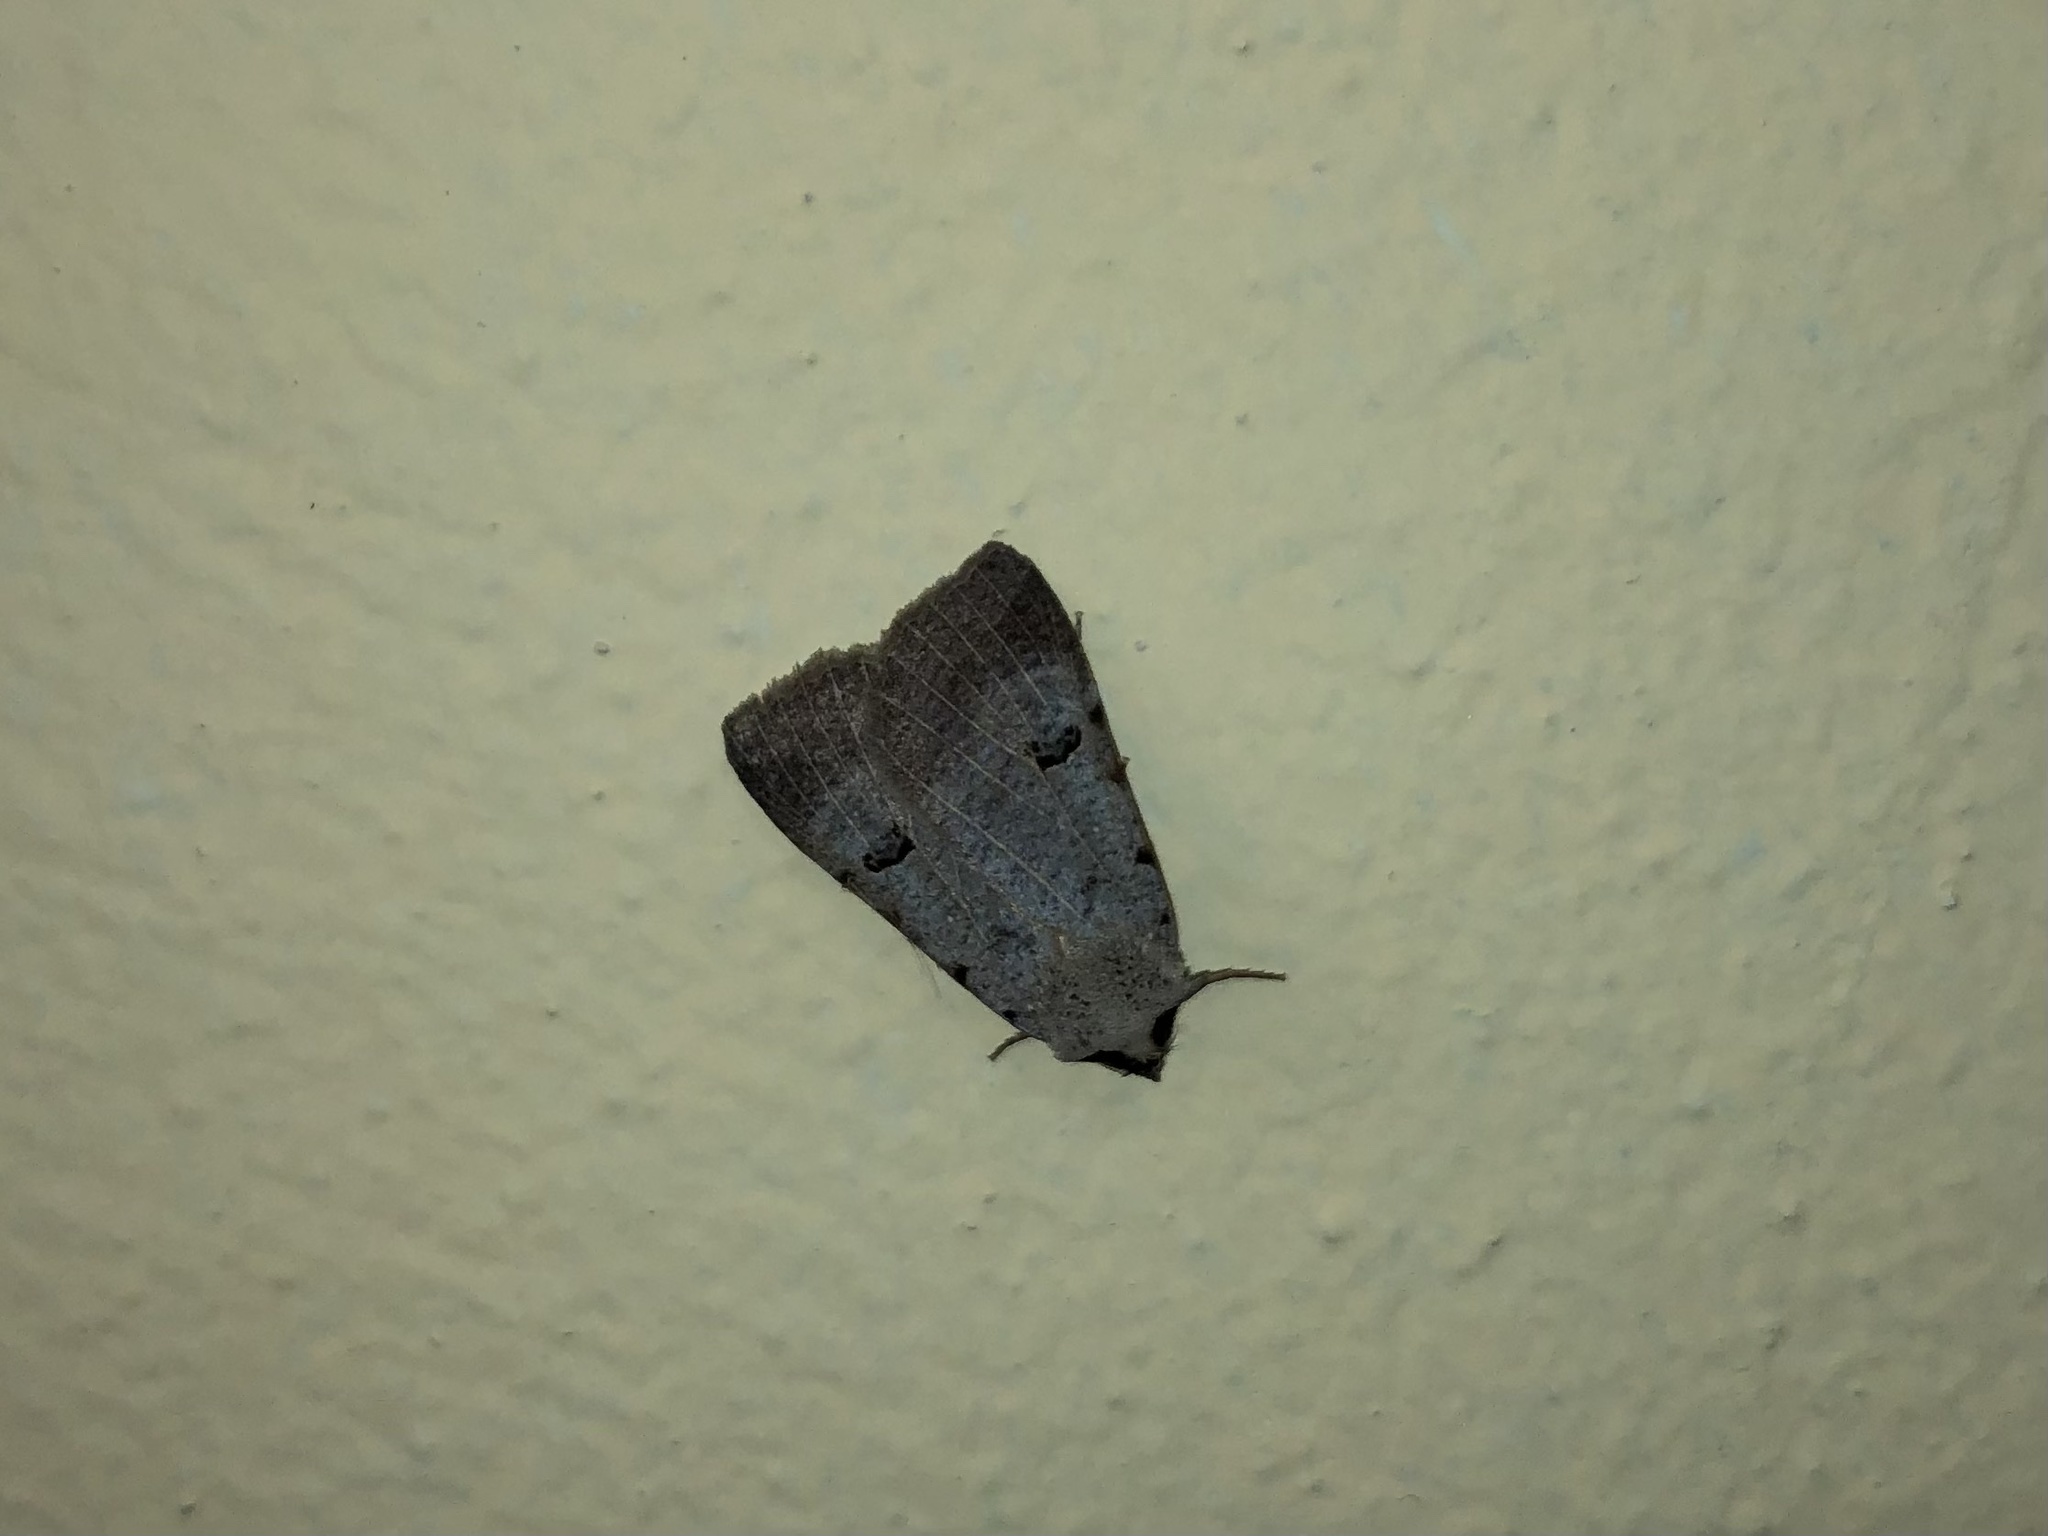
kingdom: Animalia
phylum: Arthropoda
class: Insecta
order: Lepidoptera
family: Erebidae
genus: Lygephila
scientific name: Lygephila craccae
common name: Scarce blackneck
